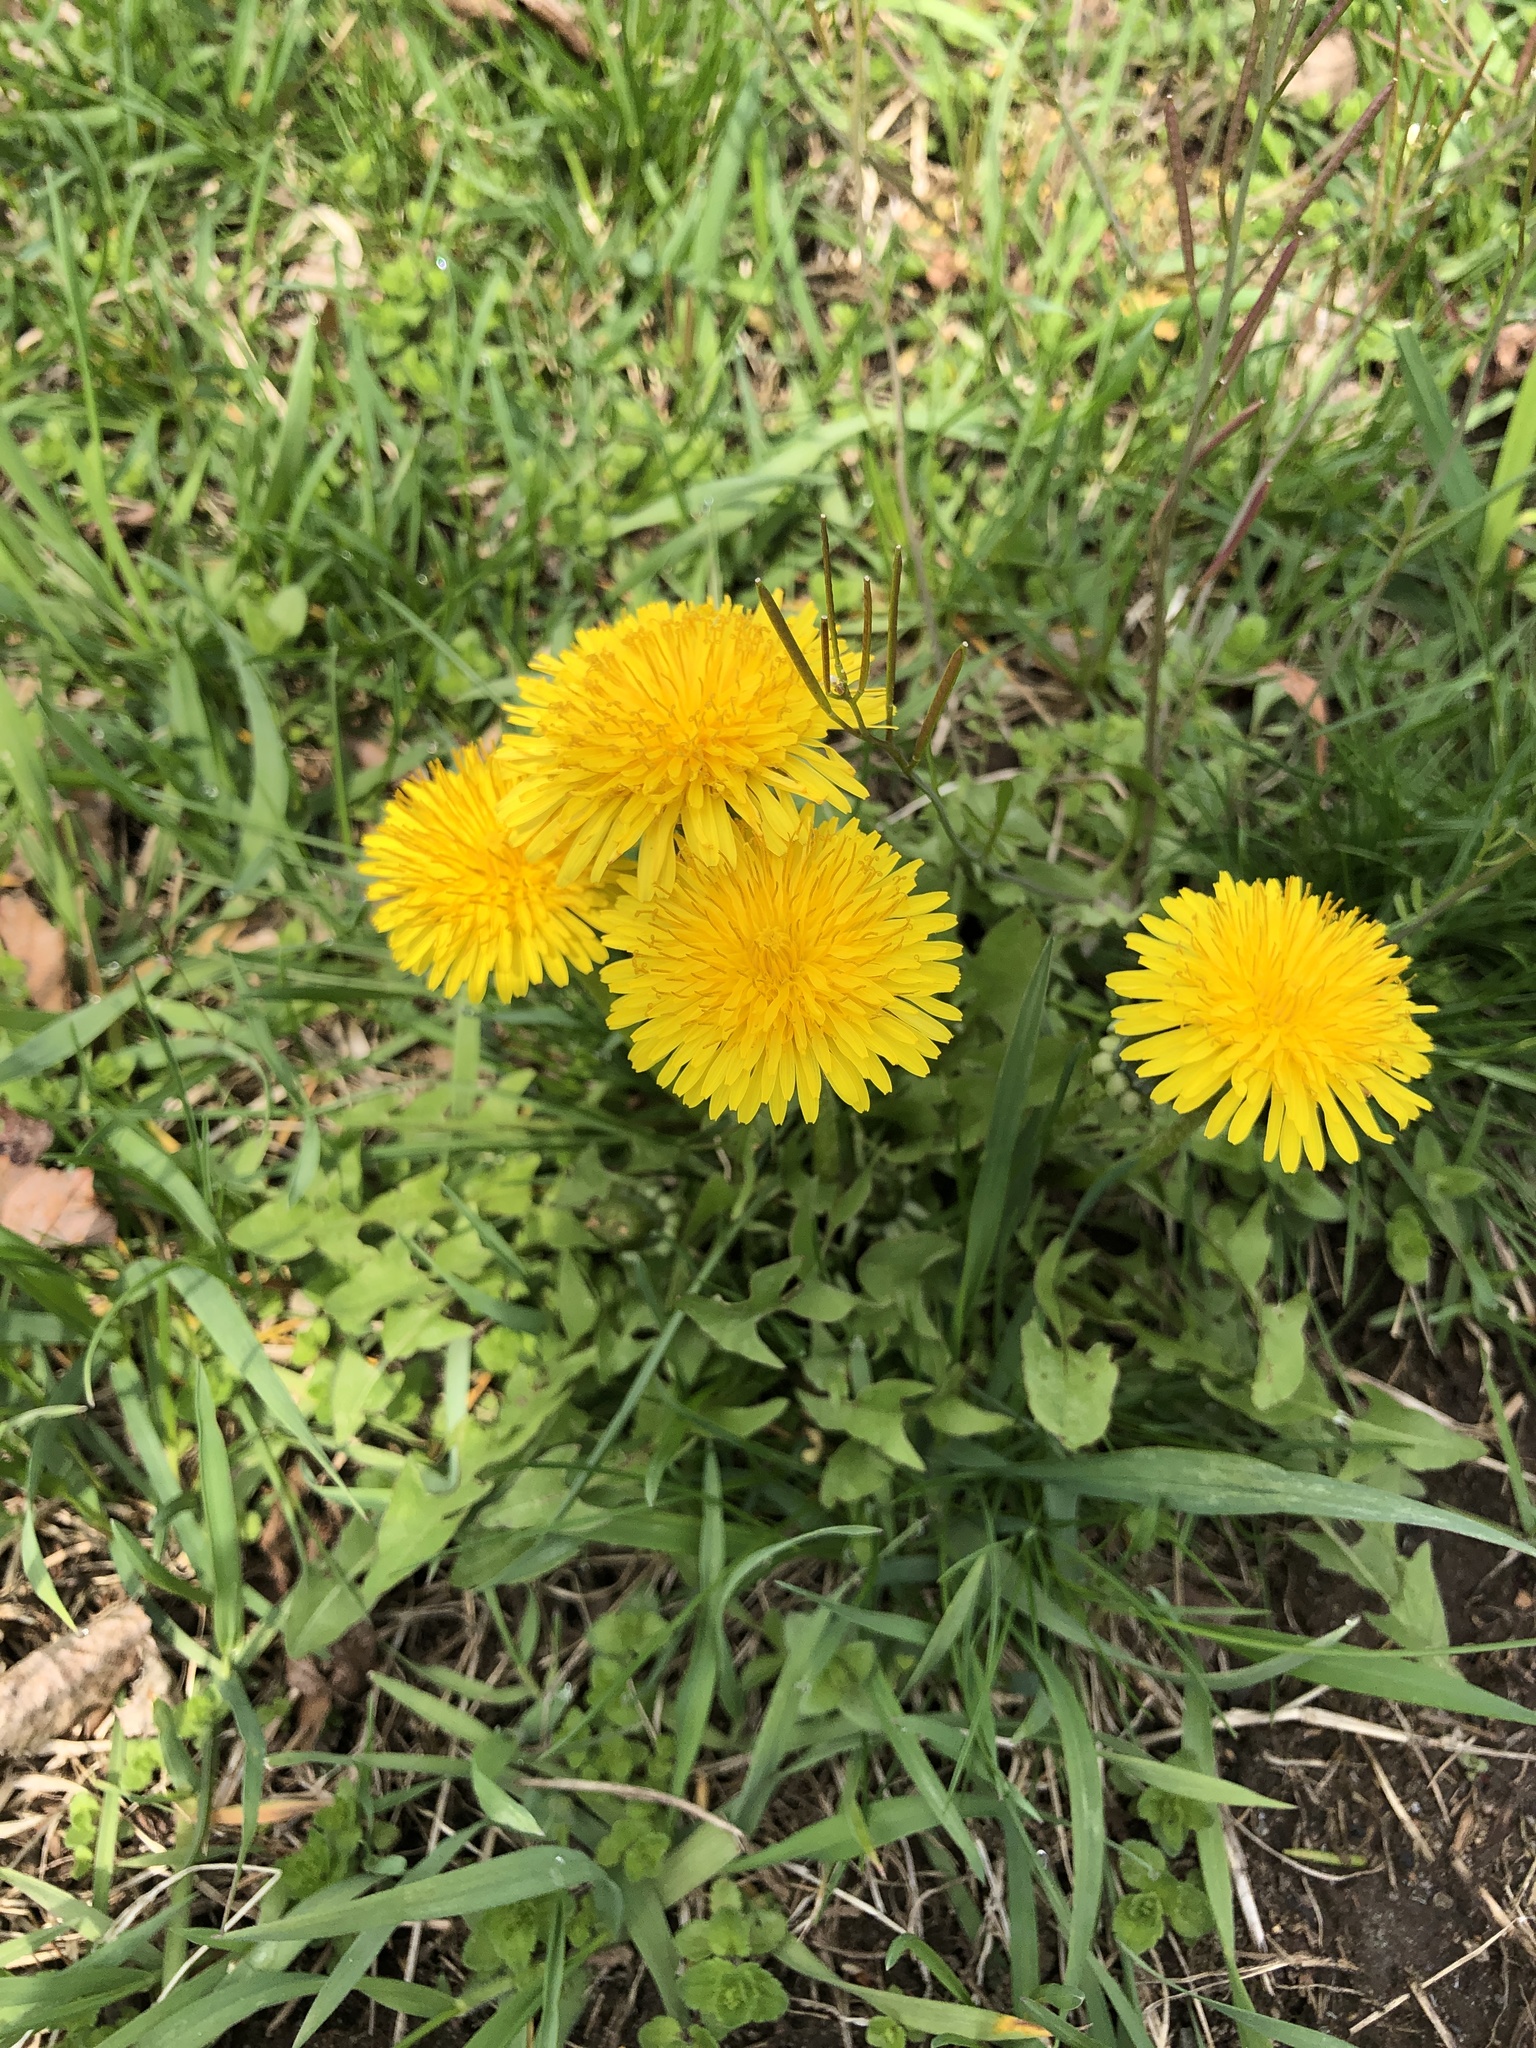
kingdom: Plantae
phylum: Tracheophyta
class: Magnoliopsida
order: Asterales
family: Asteraceae
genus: Taraxacum
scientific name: Taraxacum officinale
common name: Common dandelion
